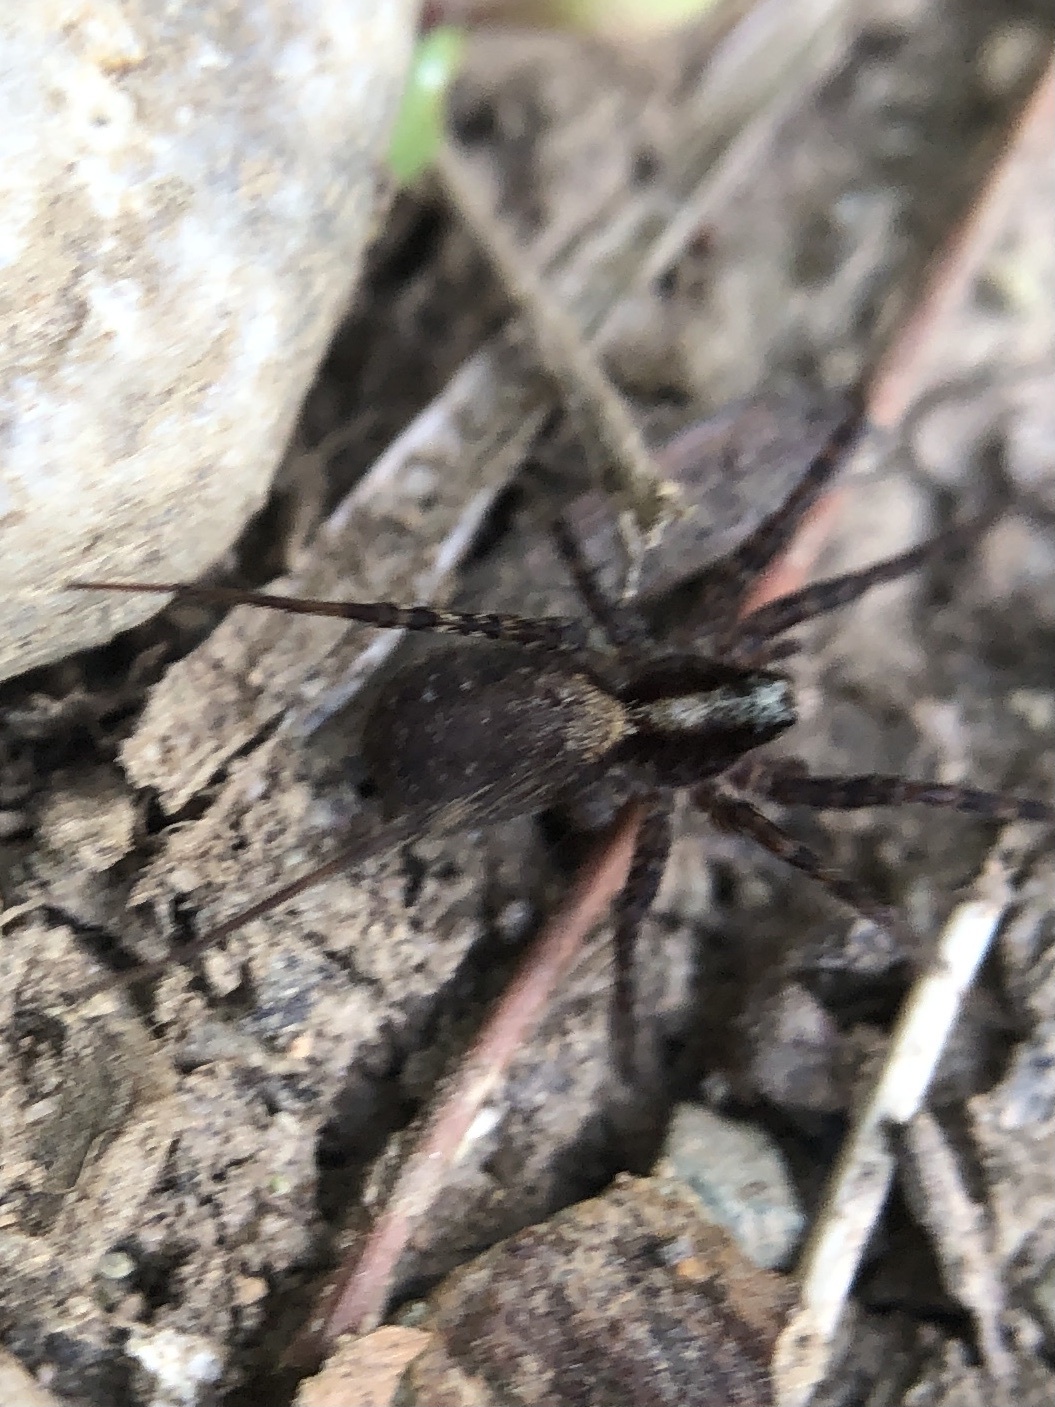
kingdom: Animalia
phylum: Arthropoda
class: Arachnida
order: Araneae
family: Lycosidae
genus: Pardosa
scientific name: Pardosa
